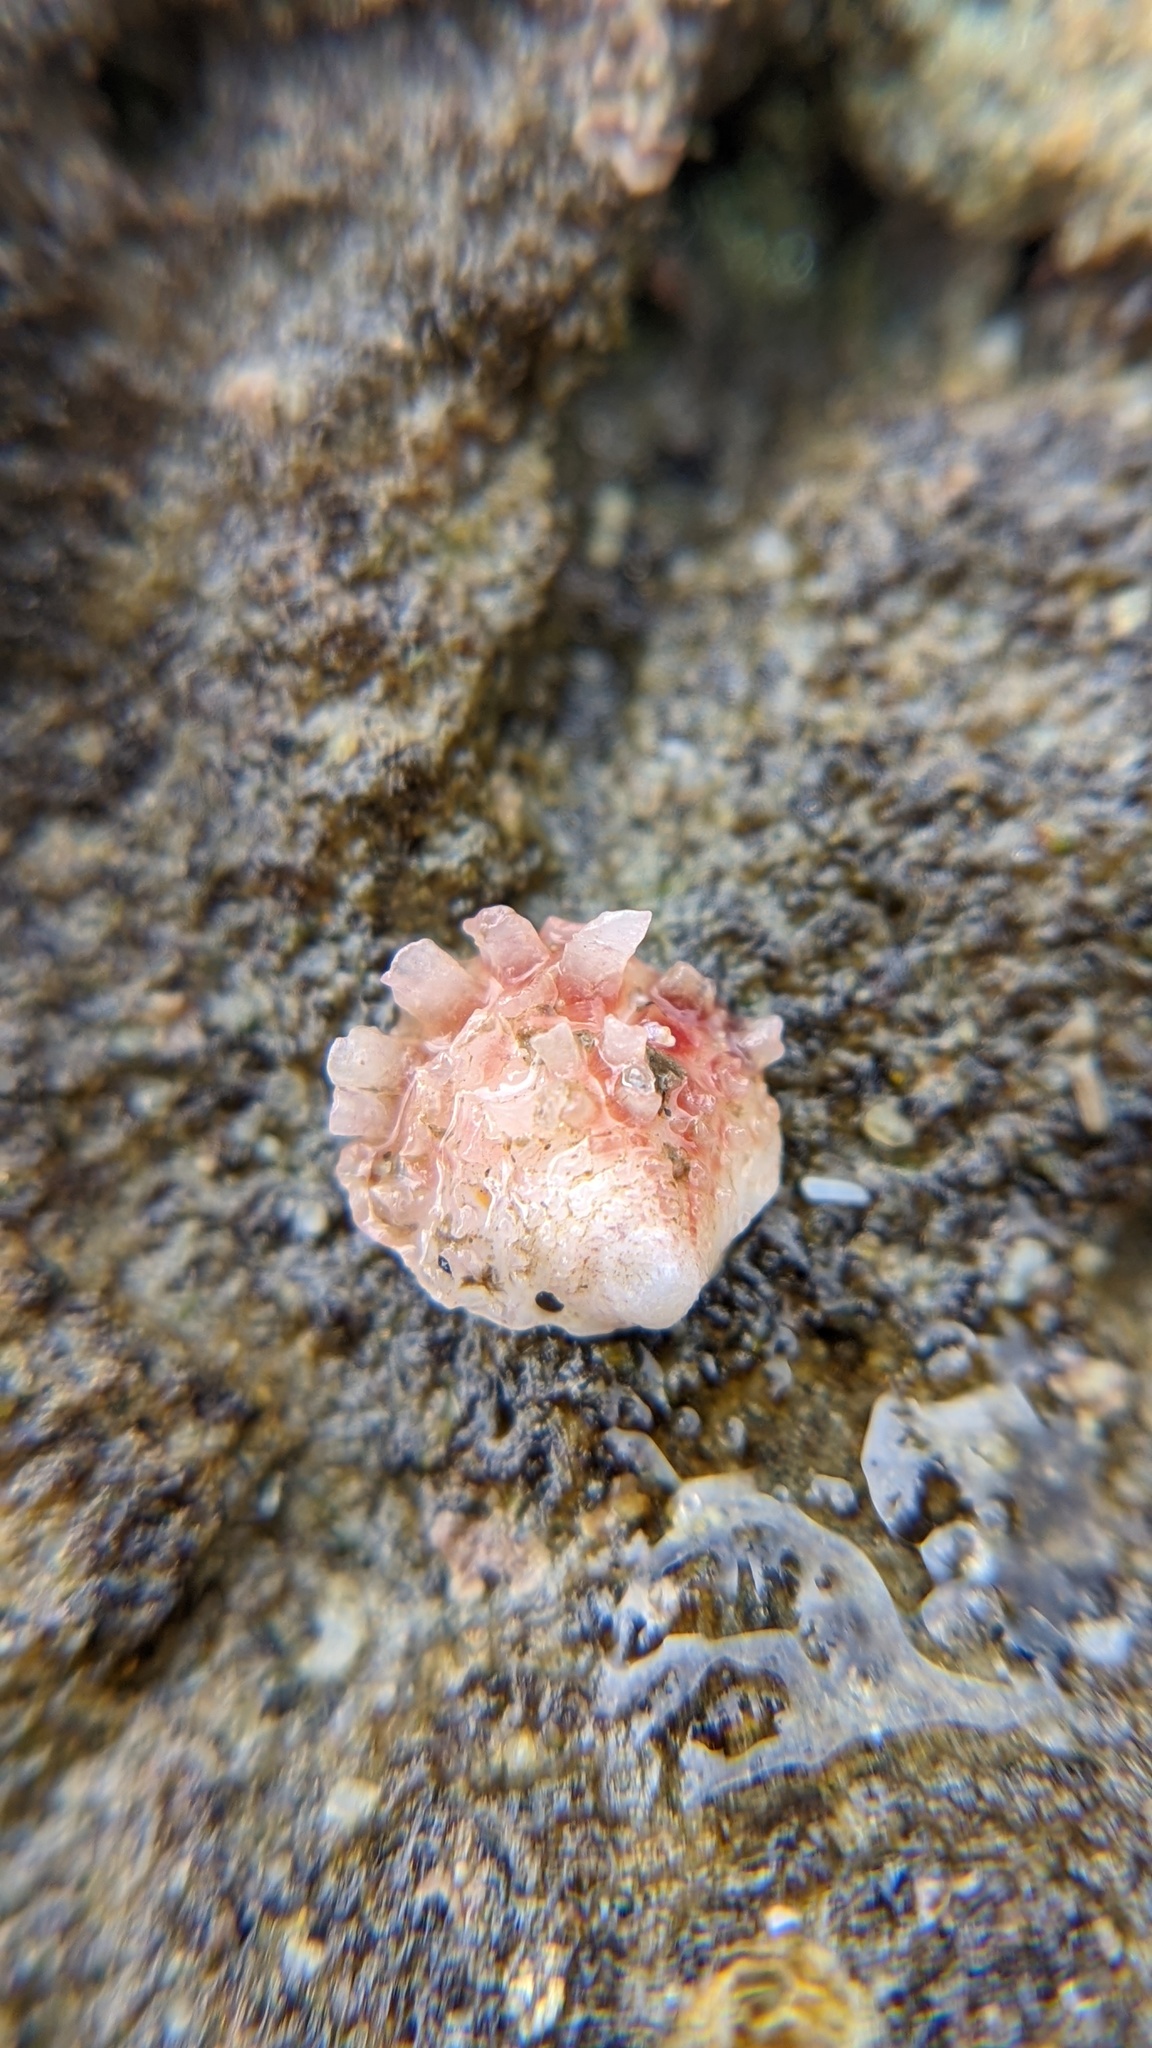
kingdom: Animalia
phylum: Mollusca
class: Bivalvia
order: Venerida
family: Chamidae
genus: Chama
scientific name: Chama arcana
